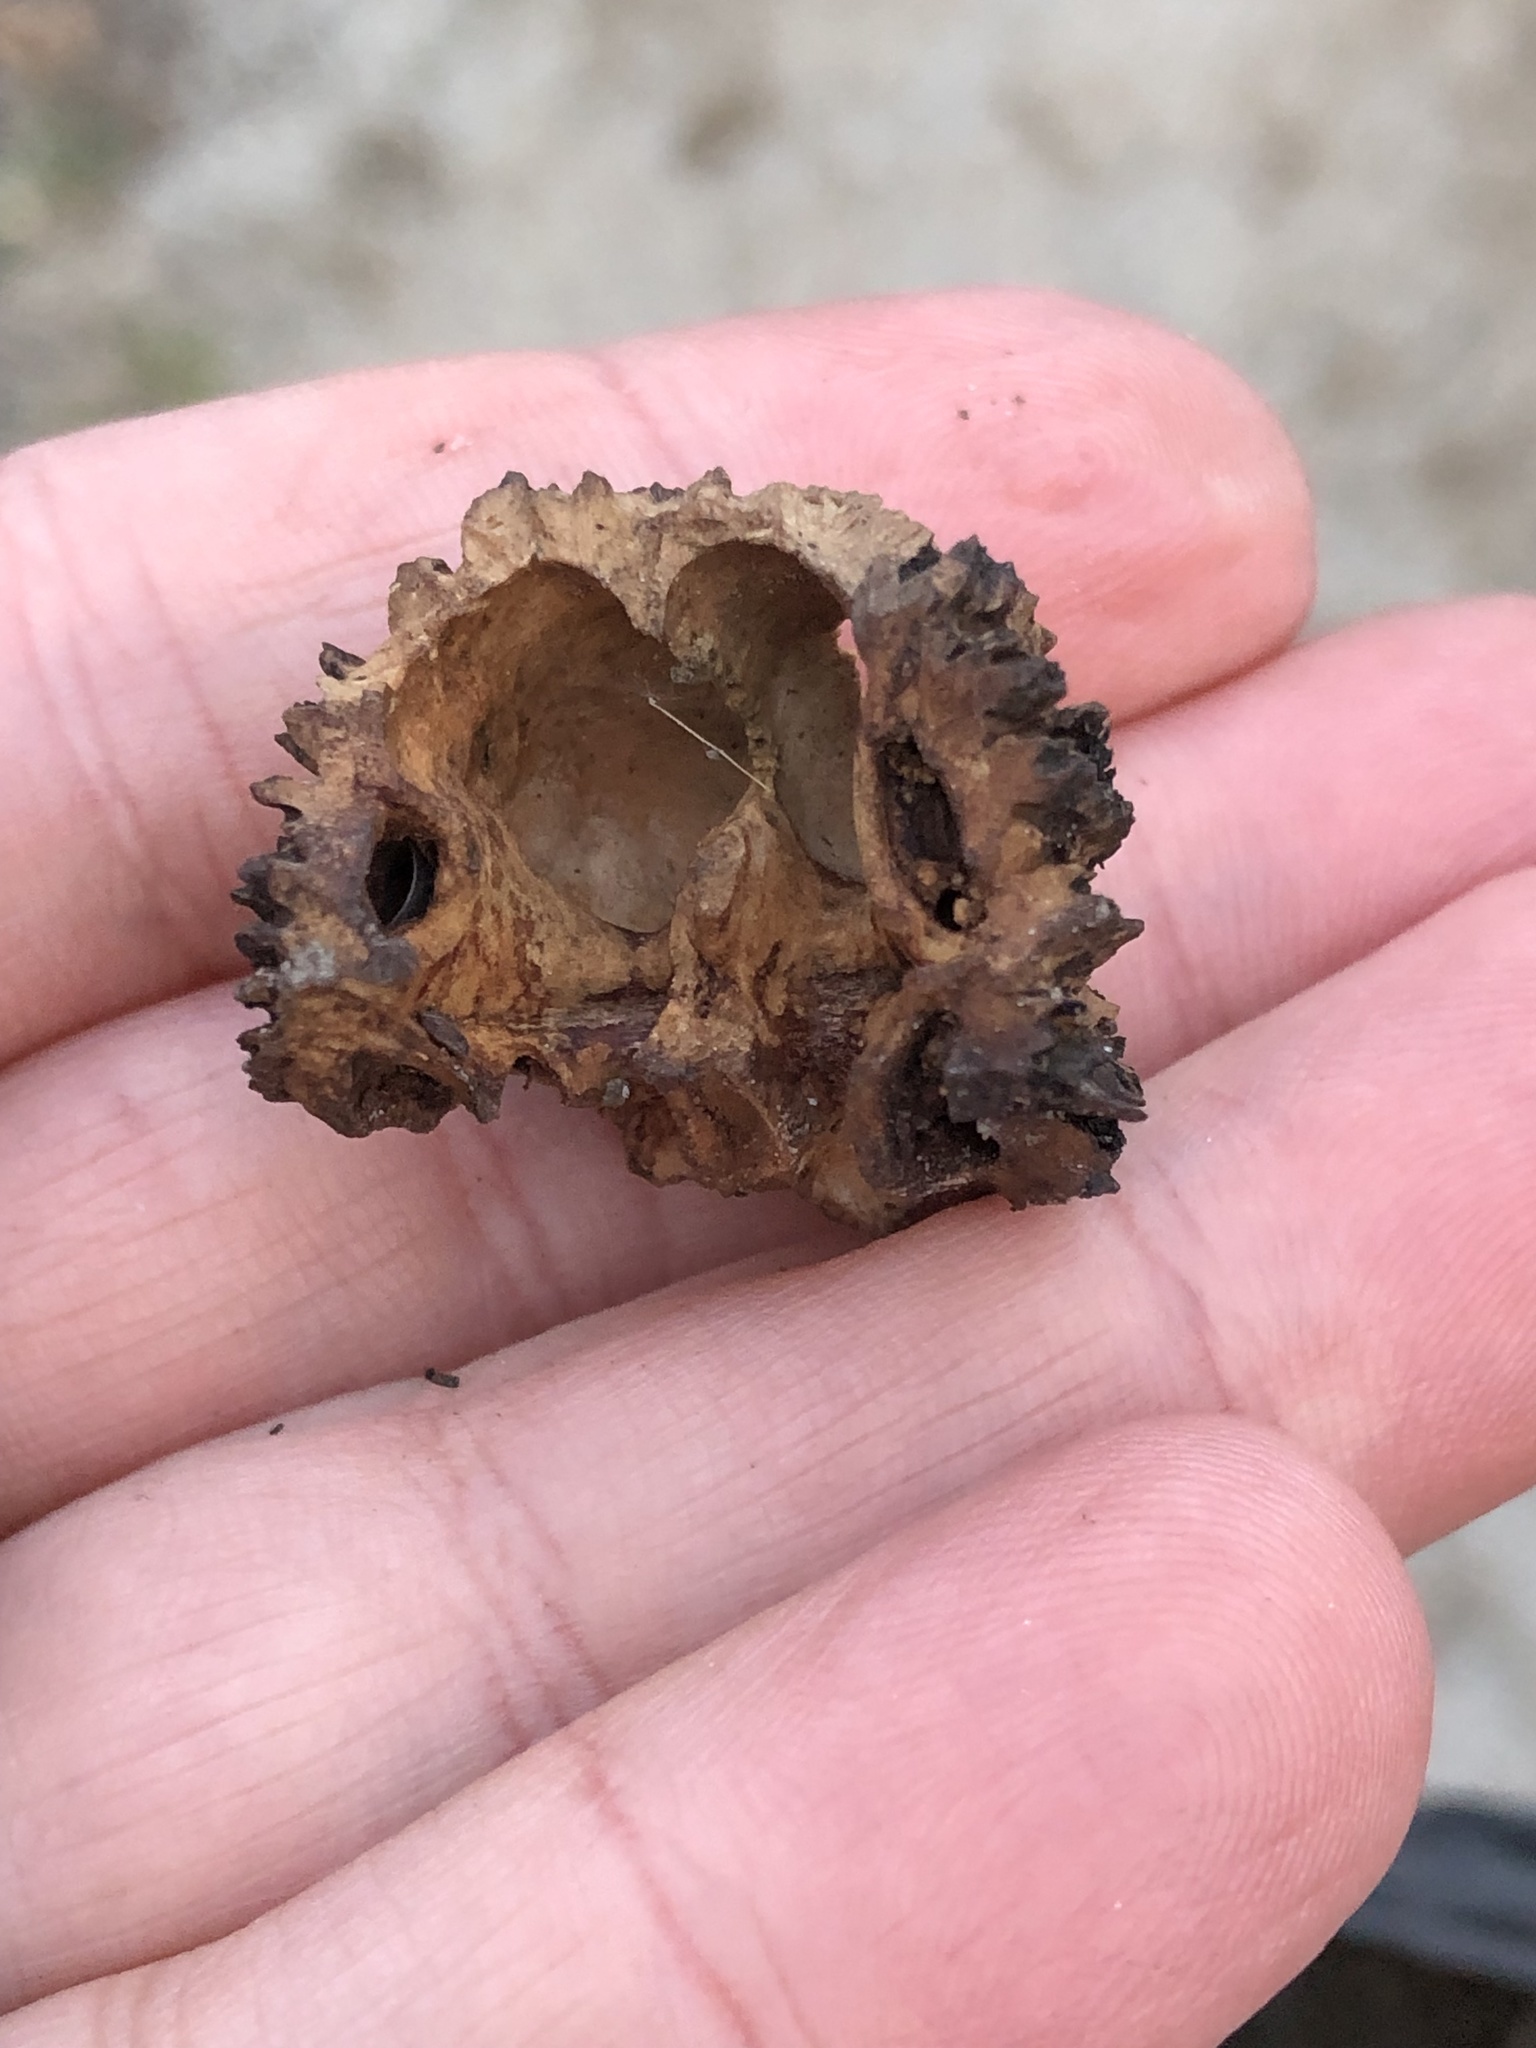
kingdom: Plantae
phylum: Tracheophyta
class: Magnoliopsida
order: Fagales
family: Juglandaceae
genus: Juglans
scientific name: Juglans nigra
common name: Black walnut
